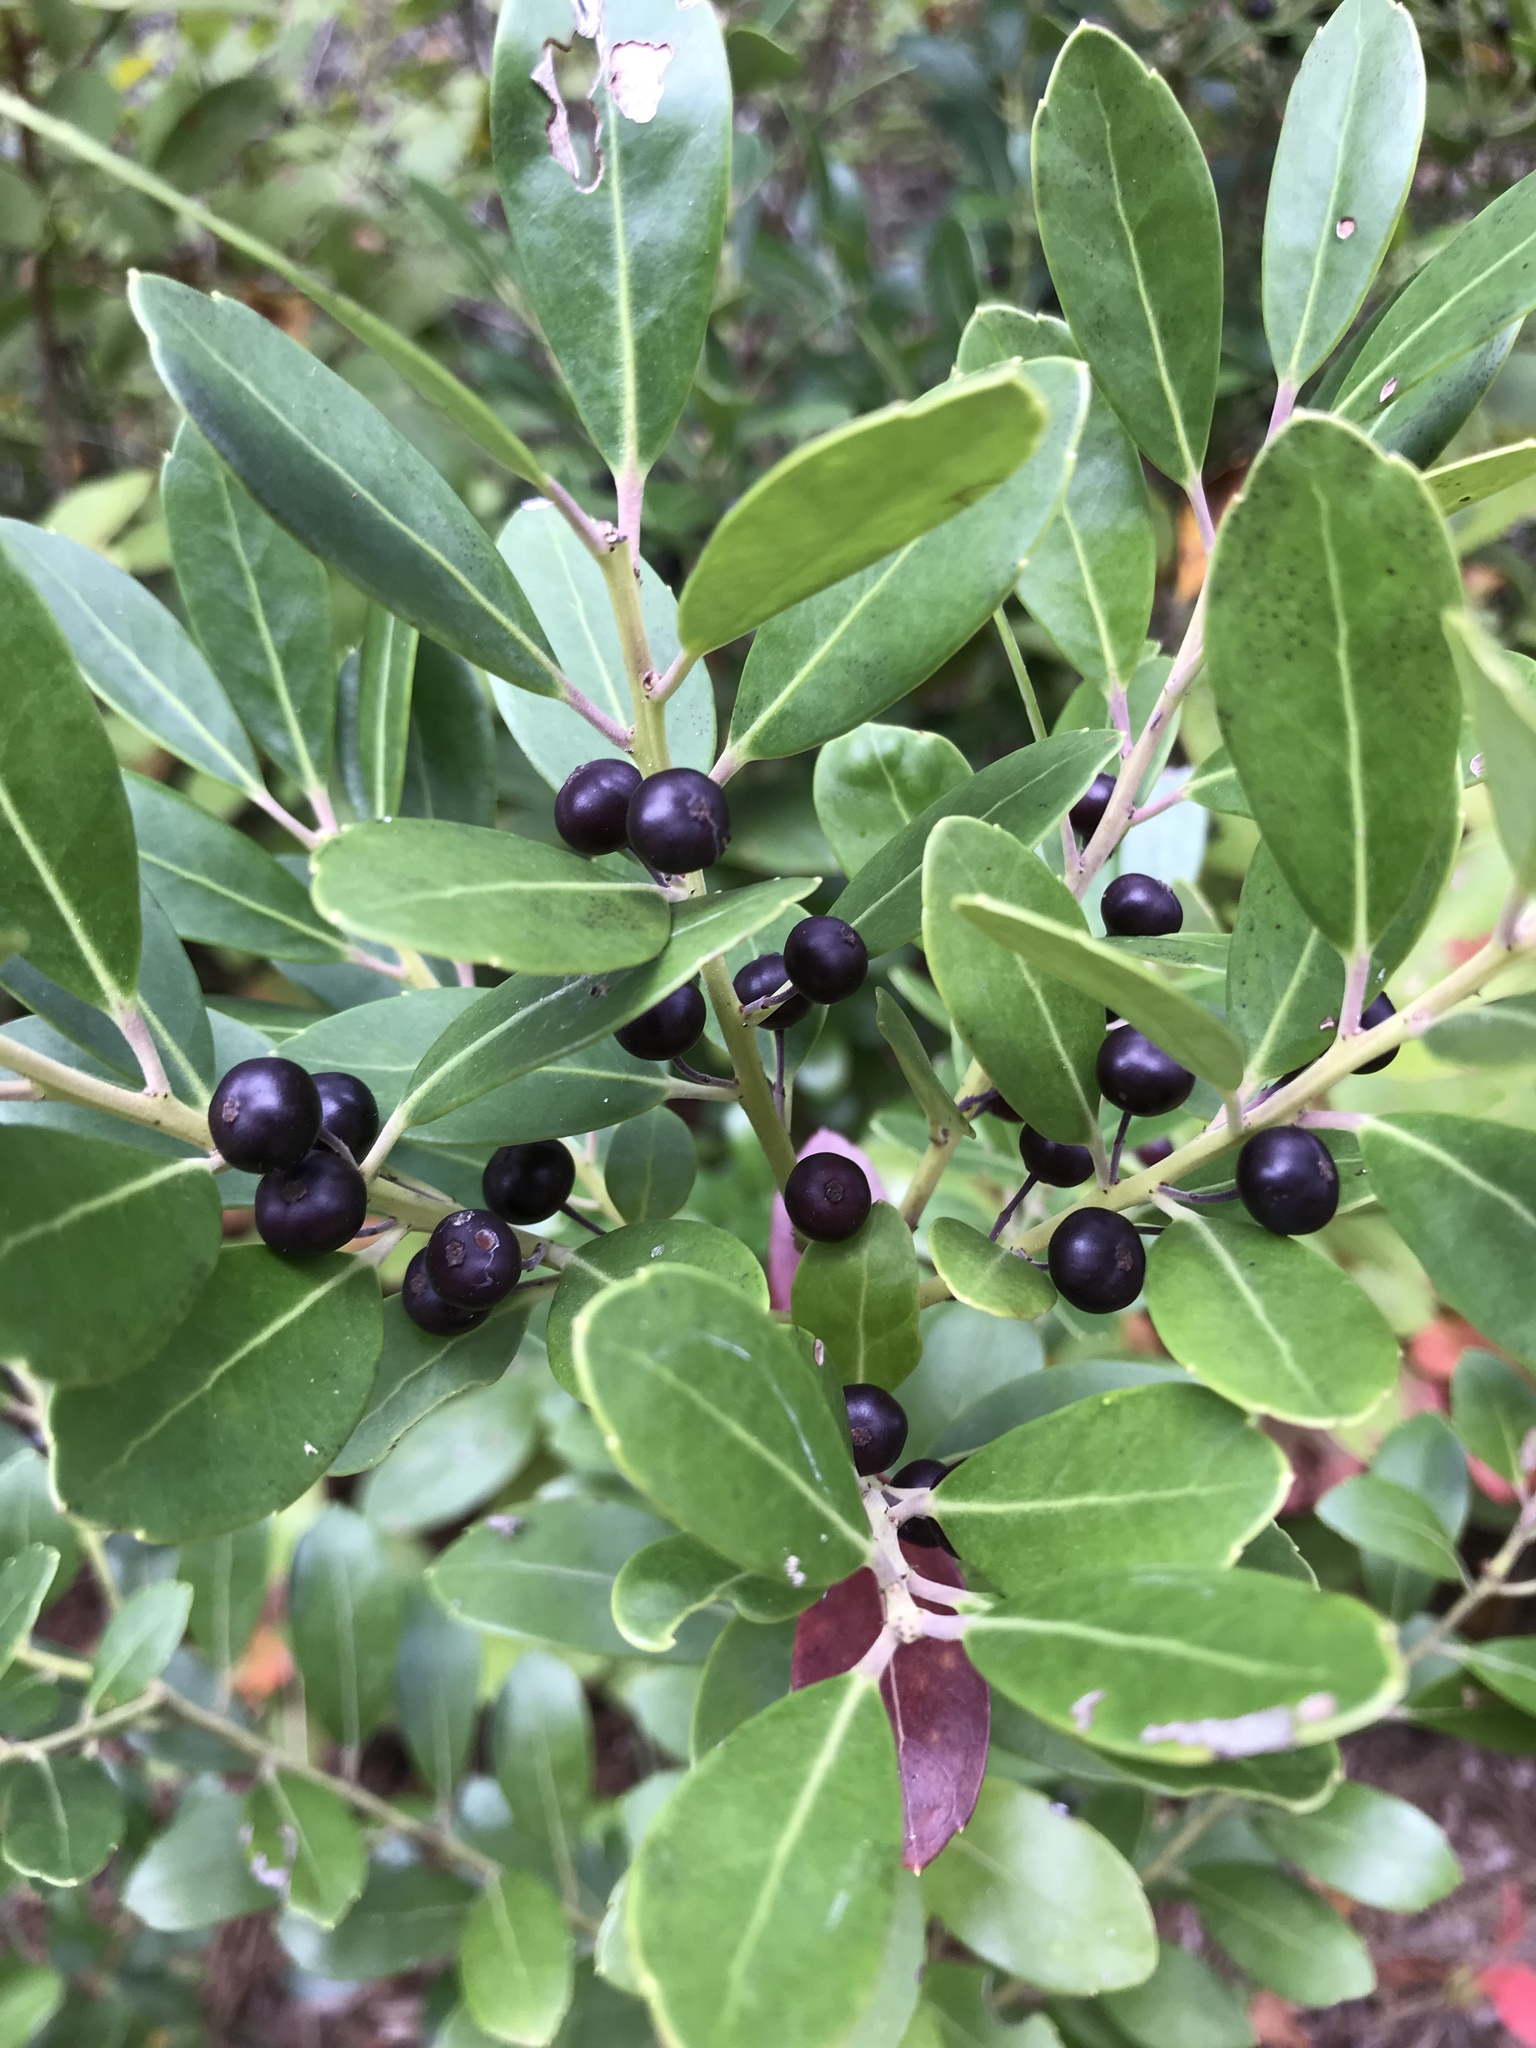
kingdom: Plantae
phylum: Tracheophyta
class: Magnoliopsida
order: Aquifoliales
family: Aquifoliaceae
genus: Ilex
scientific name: Ilex glabra
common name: Bitter gallberry
